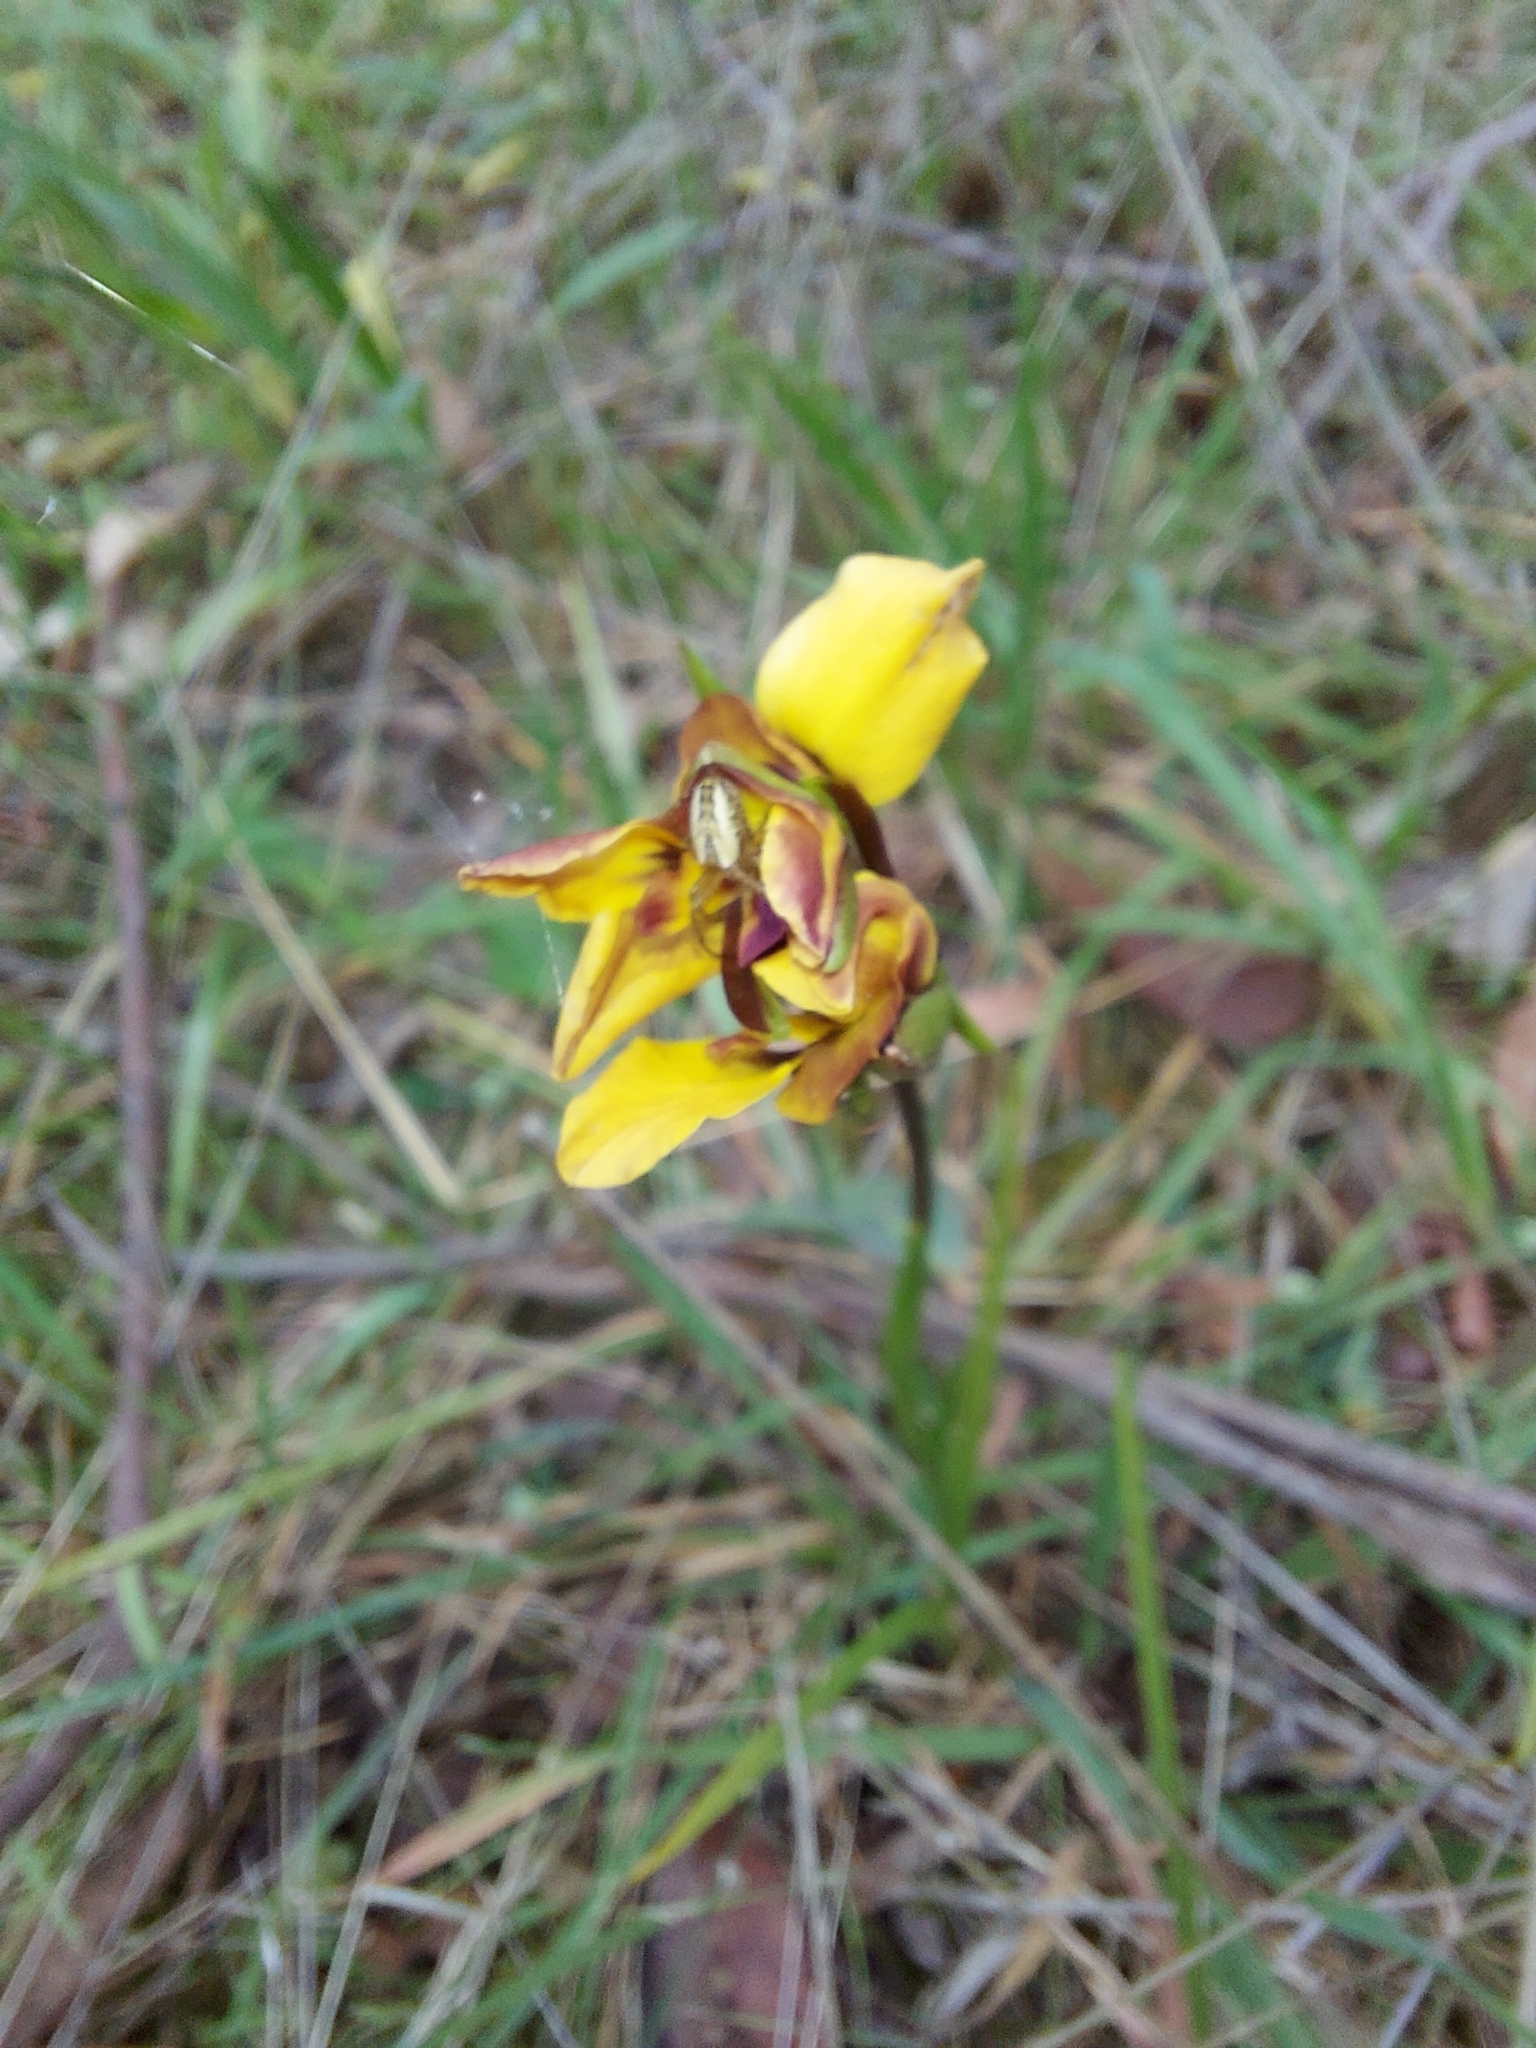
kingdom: Plantae
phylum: Tracheophyta
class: Liliopsida
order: Asparagales
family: Orchidaceae
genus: Diuris
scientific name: Diuris orientis
